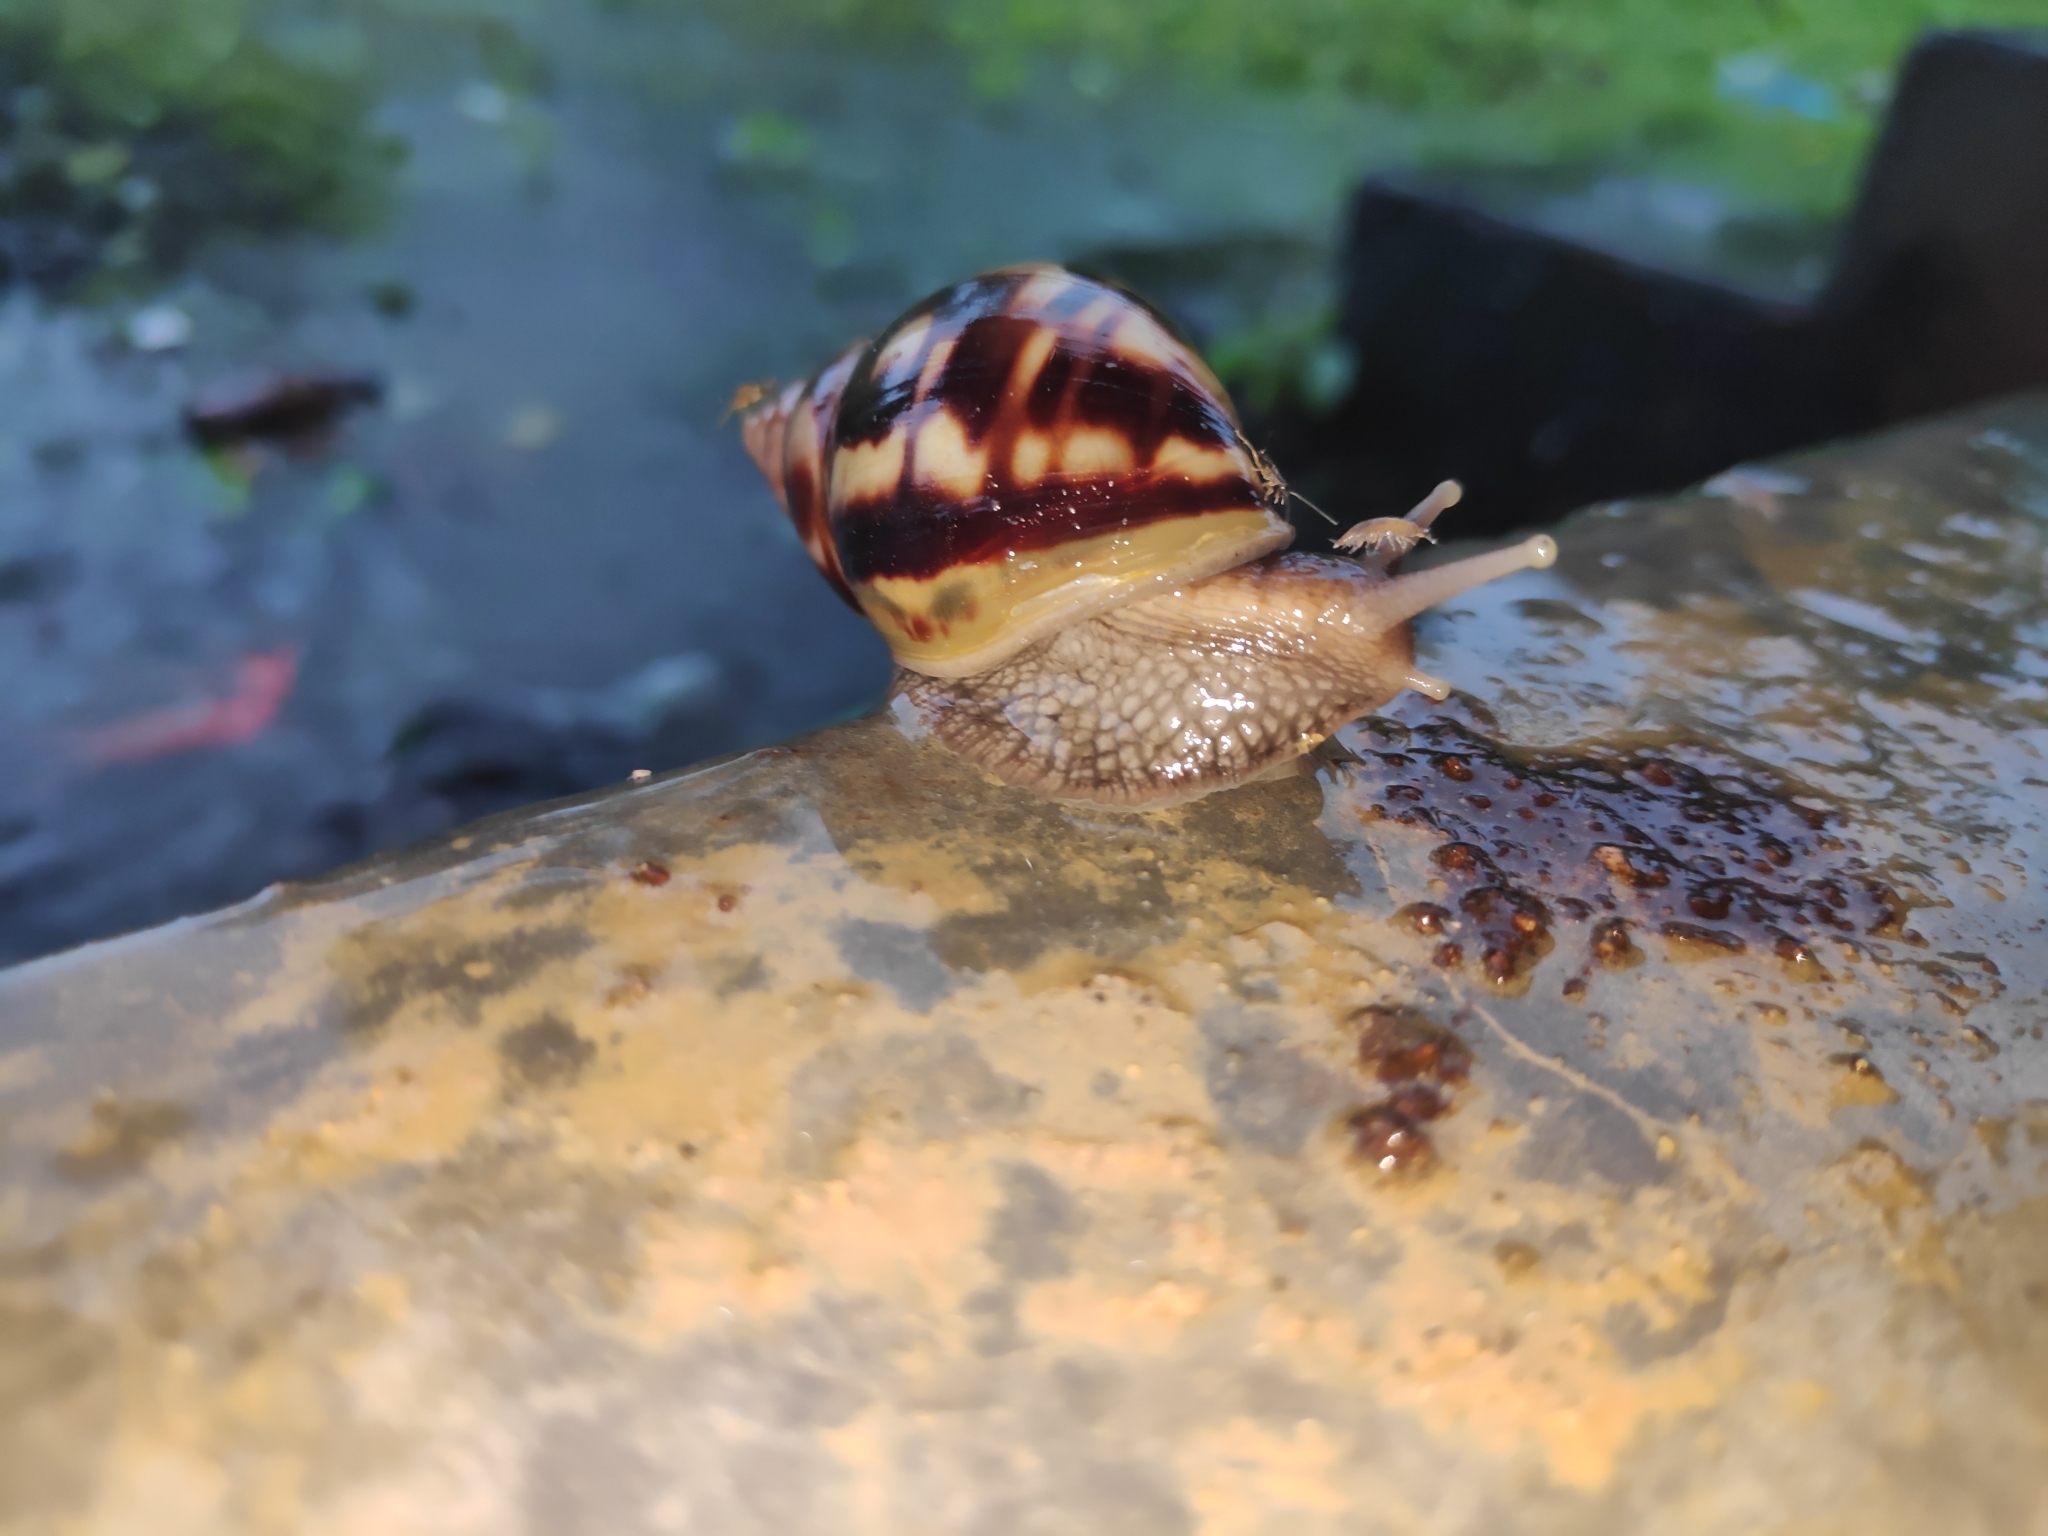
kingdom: Animalia
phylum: Mollusca
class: Gastropoda
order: Stylommatophora
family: Achatinidae
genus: Lissachatina
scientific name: Lissachatina fulica
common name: Giant african snail
